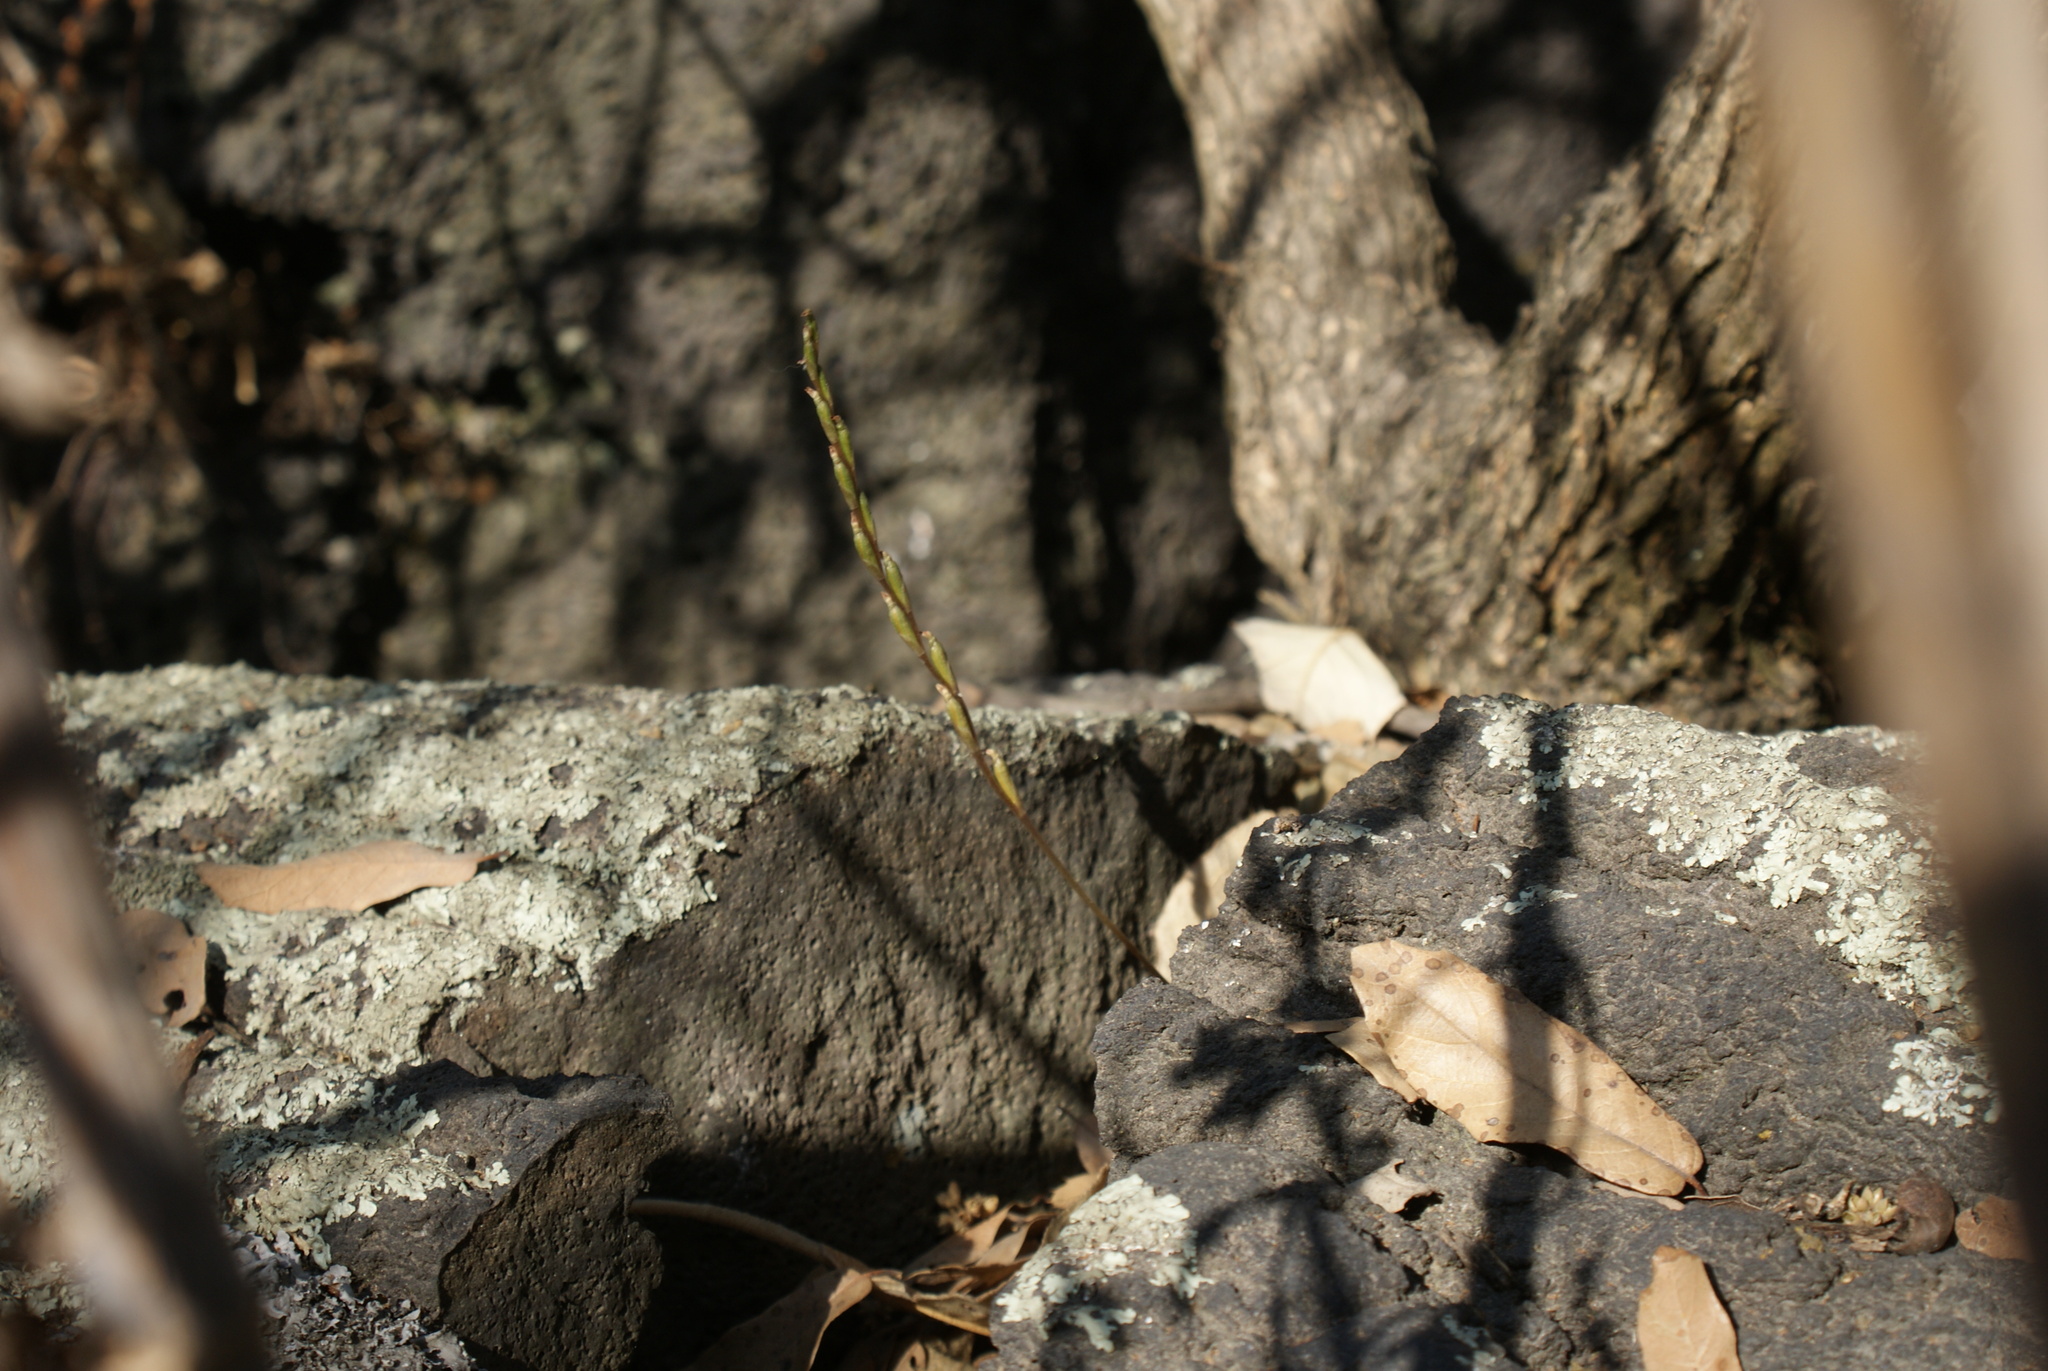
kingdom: Plantae
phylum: Tracheophyta
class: Liliopsida
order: Asparagales
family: Orchidaceae
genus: Microthelys
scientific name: Microthelys minutiflora
